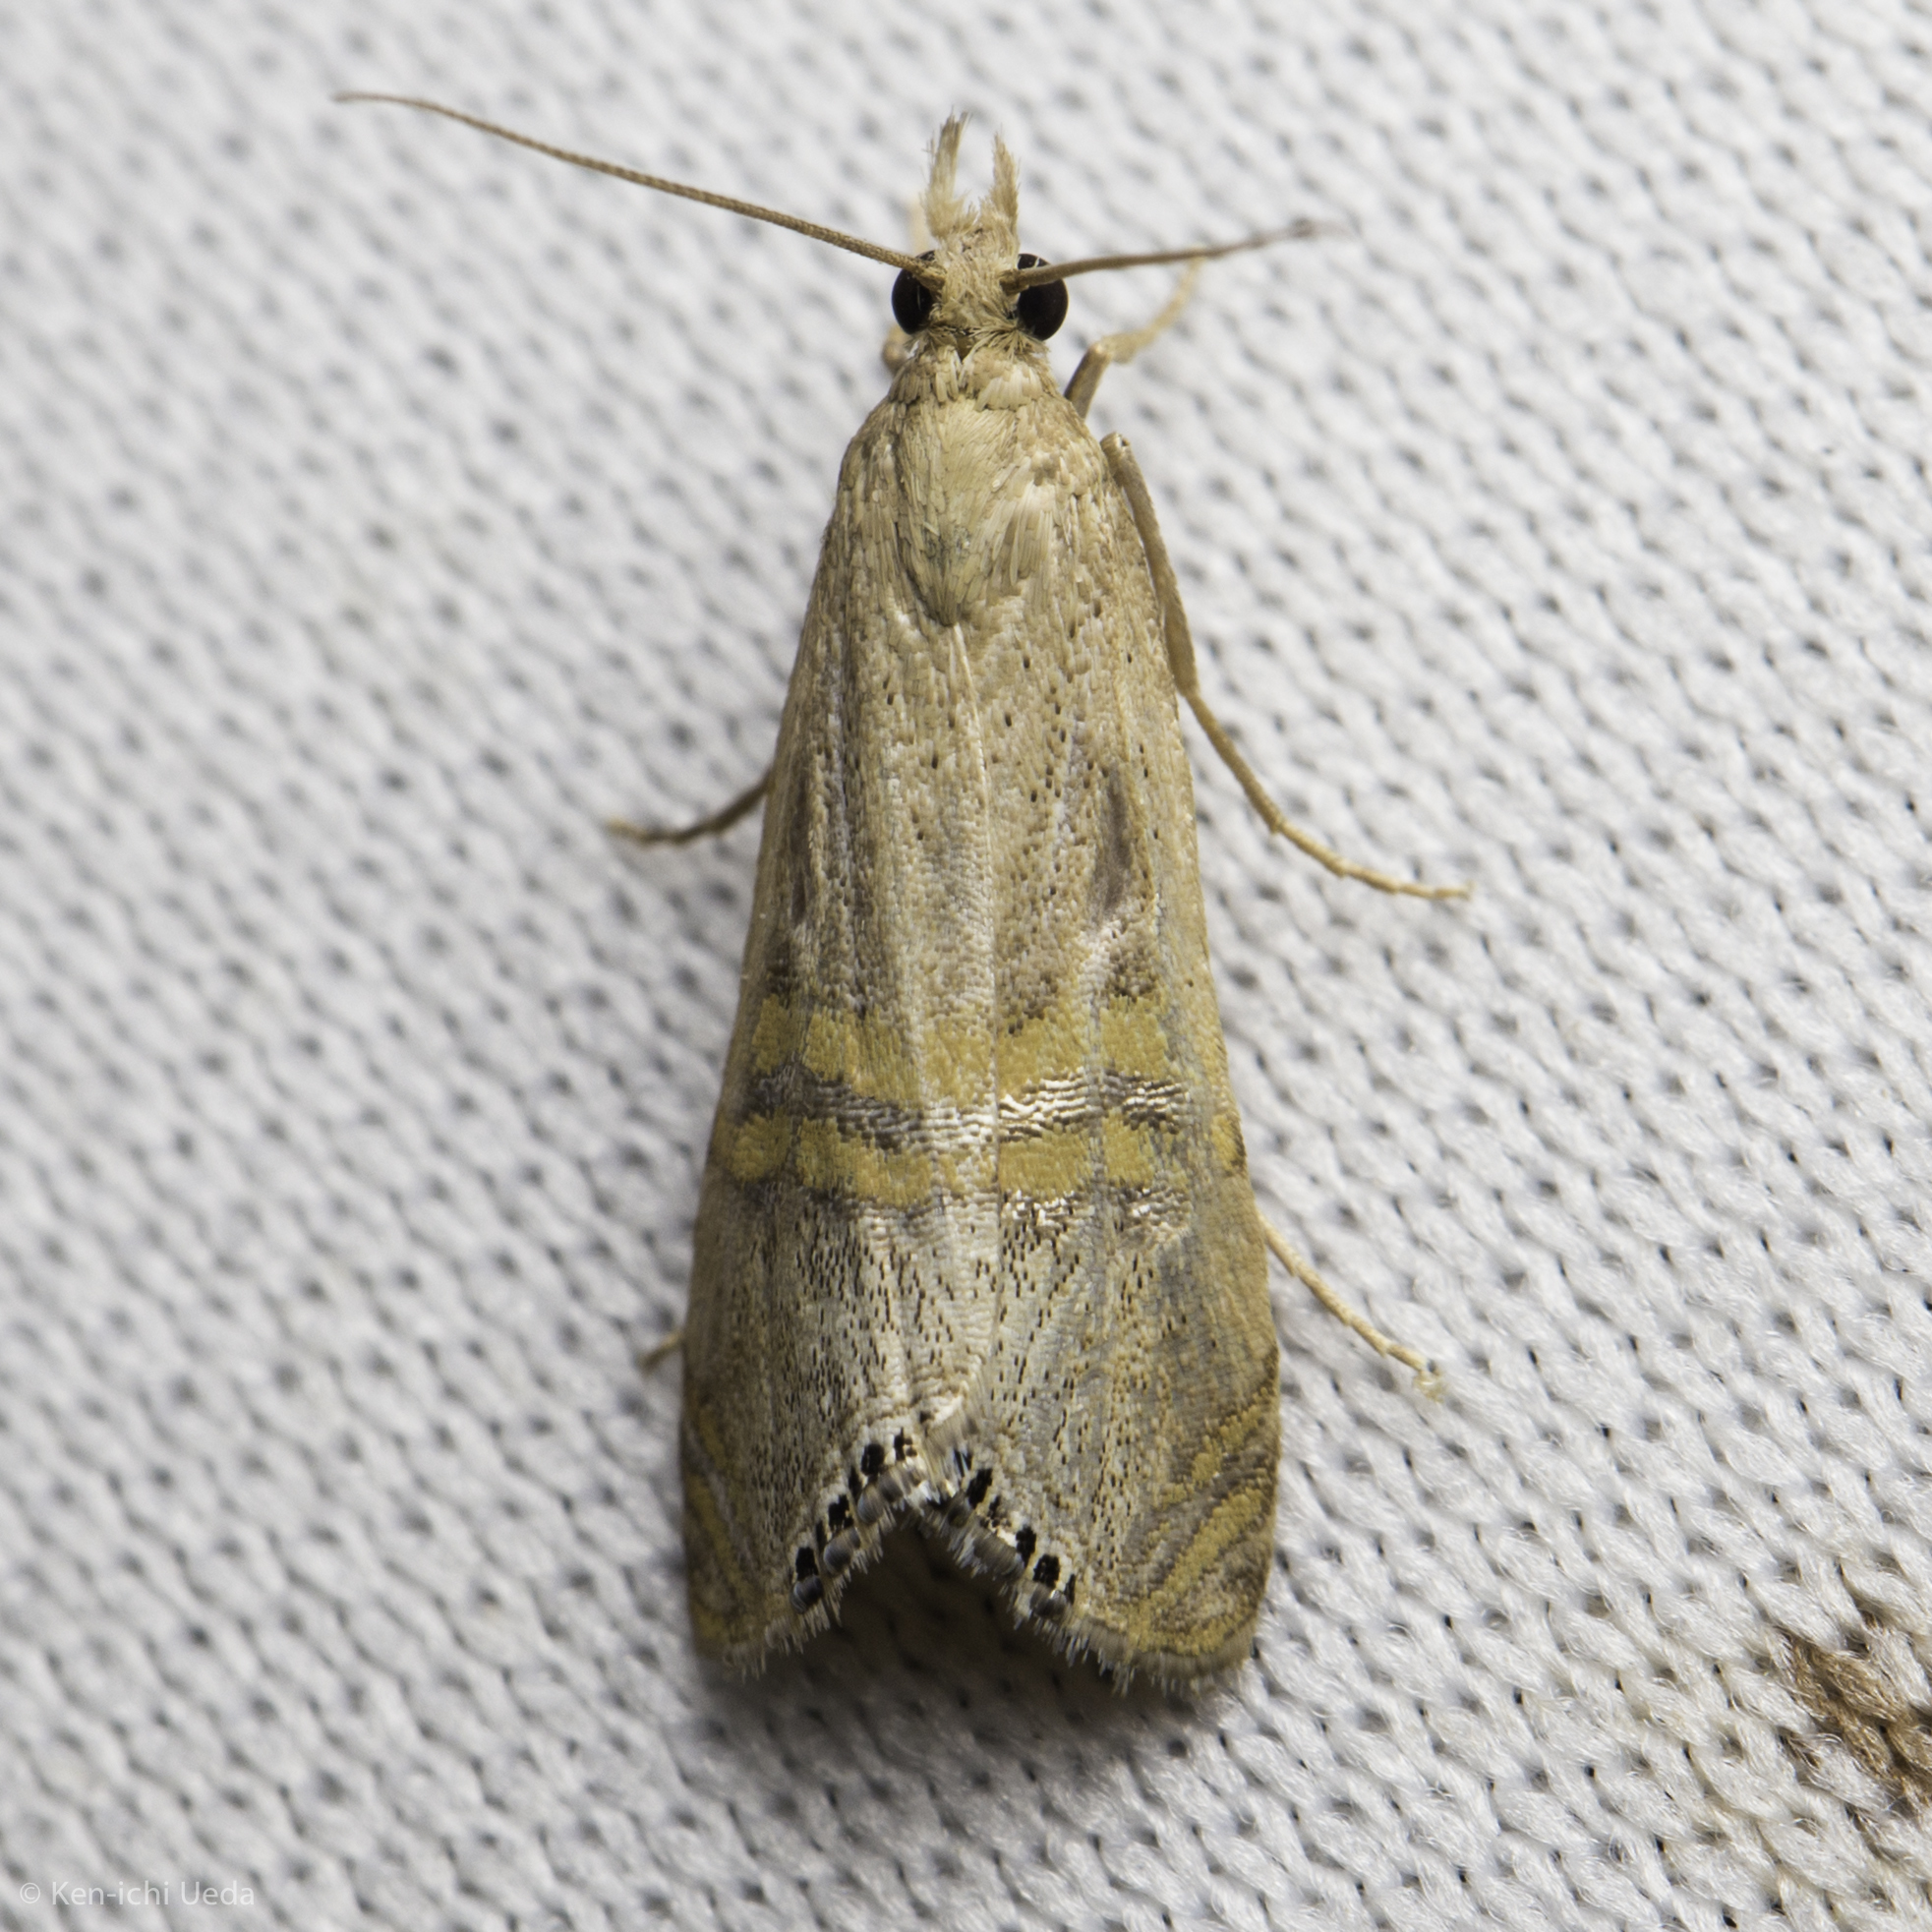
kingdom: Animalia
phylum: Arthropoda
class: Insecta
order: Lepidoptera
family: Crambidae
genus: Euchromius
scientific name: Euchromius ocellea
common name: Necklace veneer moth
